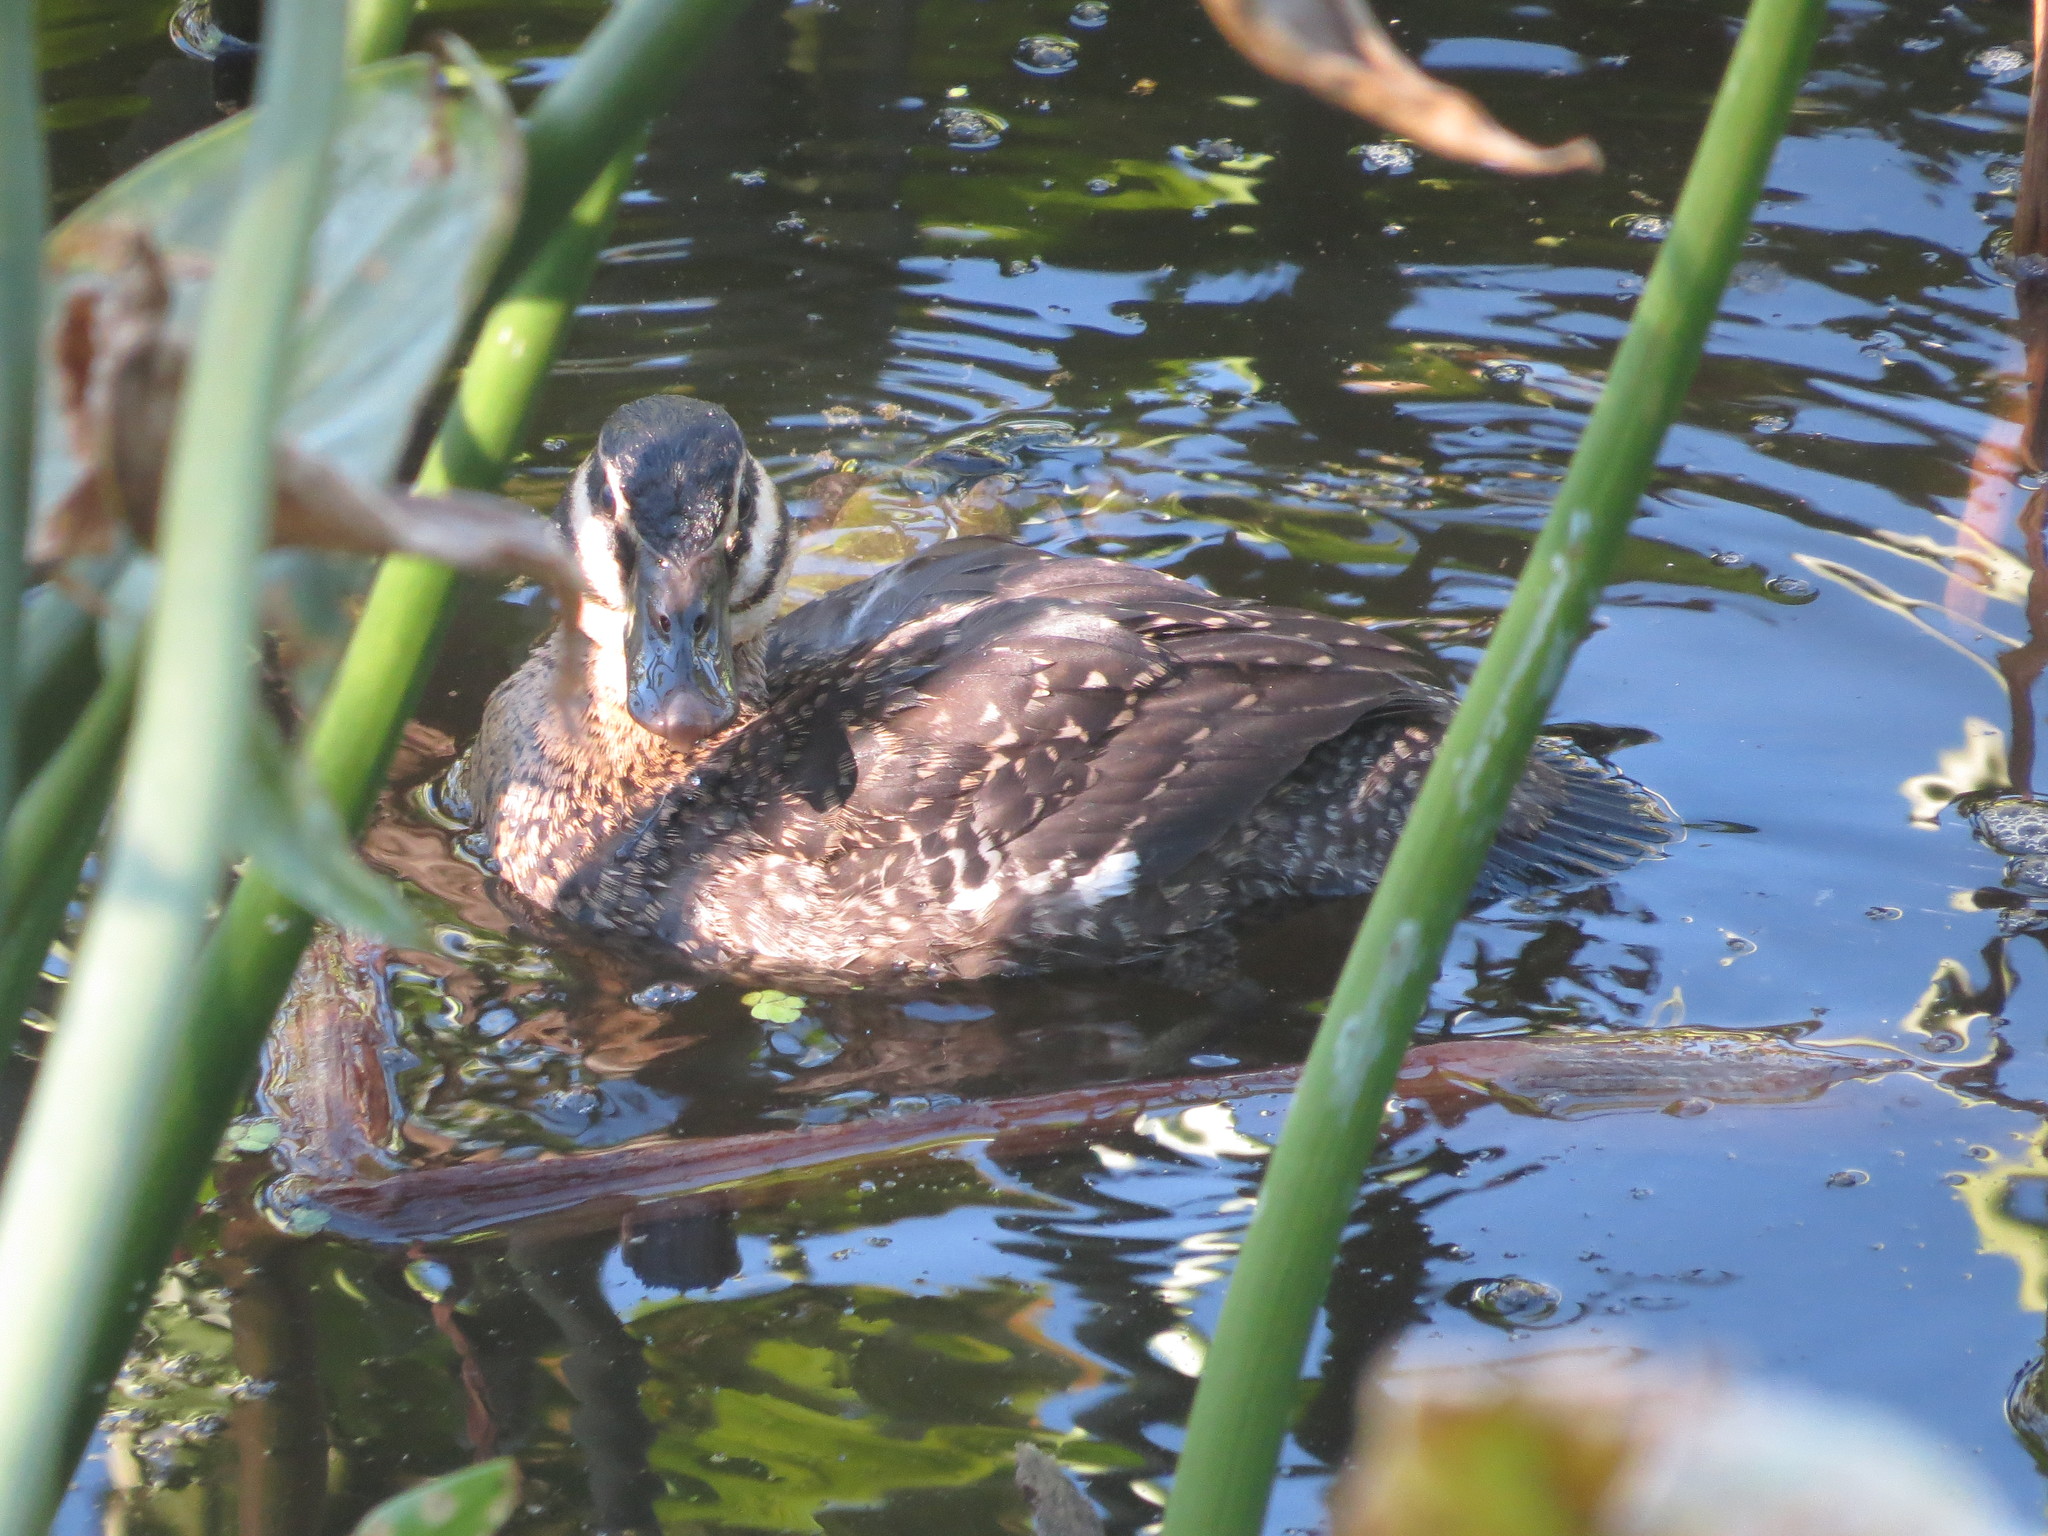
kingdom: Animalia
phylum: Chordata
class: Aves
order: Anseriformes
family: Anatidae
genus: Nomonyx
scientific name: Nomonyx dominicus
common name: Masked duck
